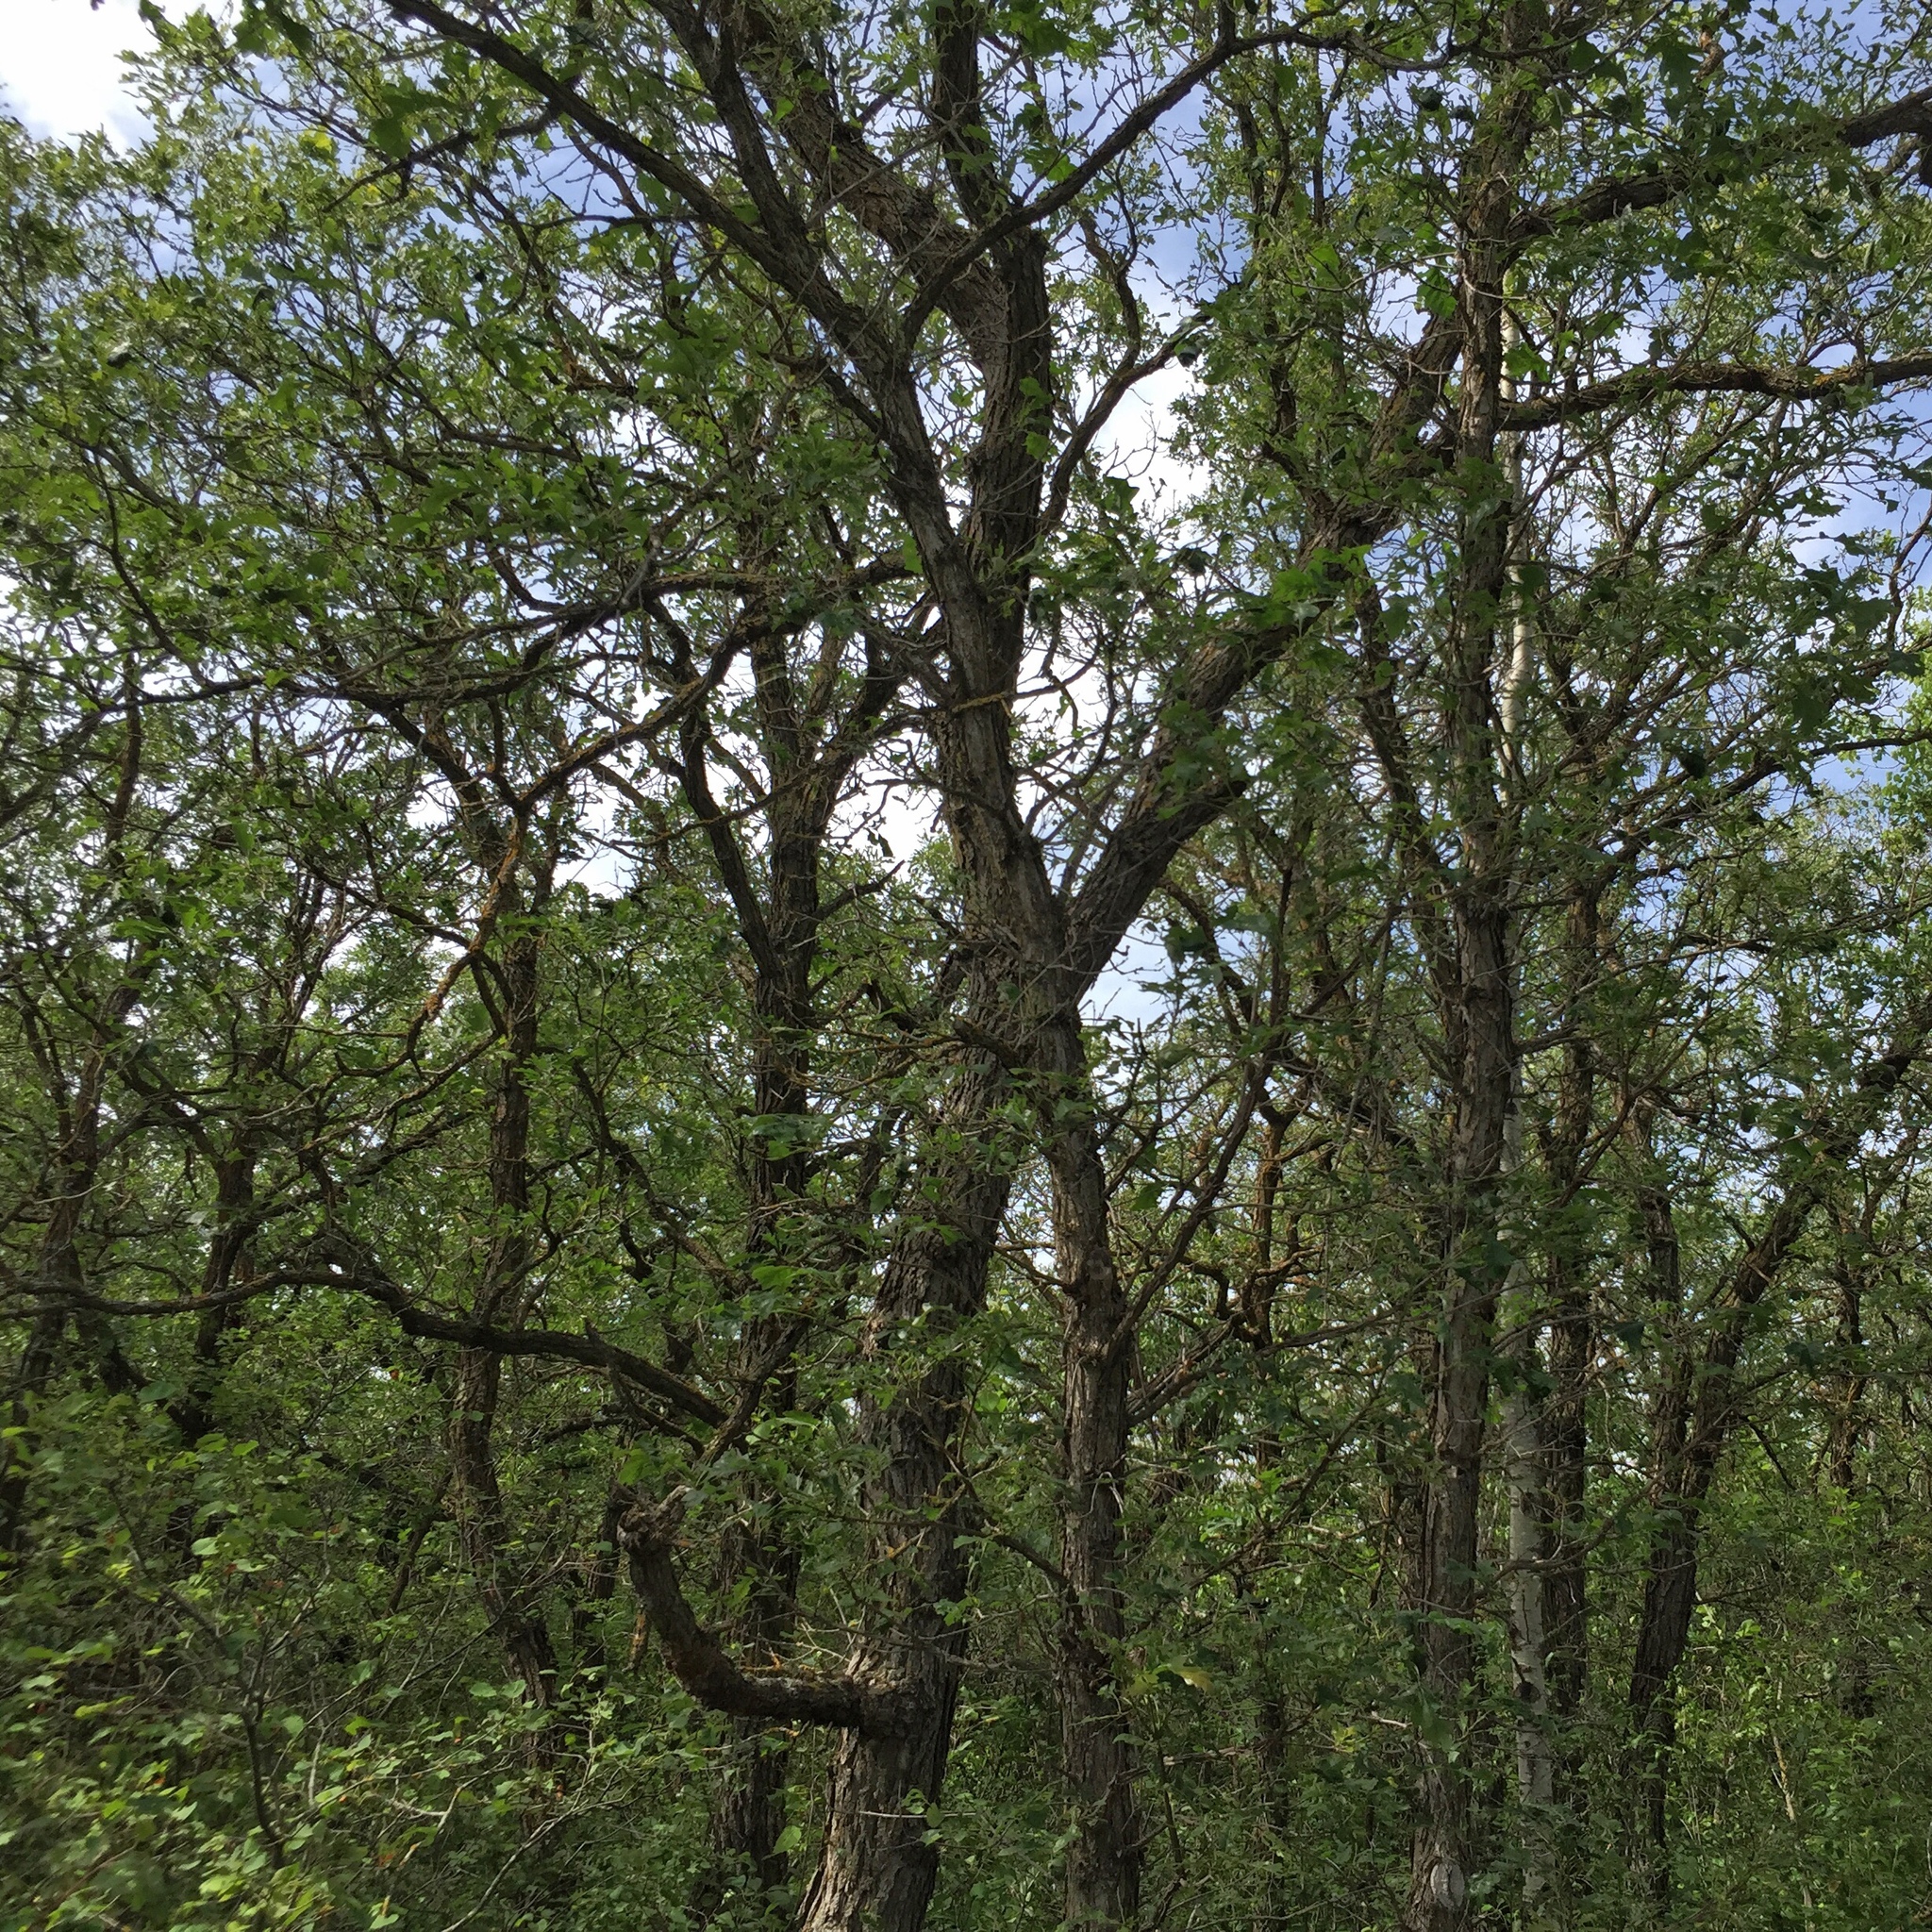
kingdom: Plantae
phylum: Tracheophyta
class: Magnoliopsida
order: Fagales
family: Fagaceae
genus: Quercus
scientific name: Quercus macrocarpa
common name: Bur oak
